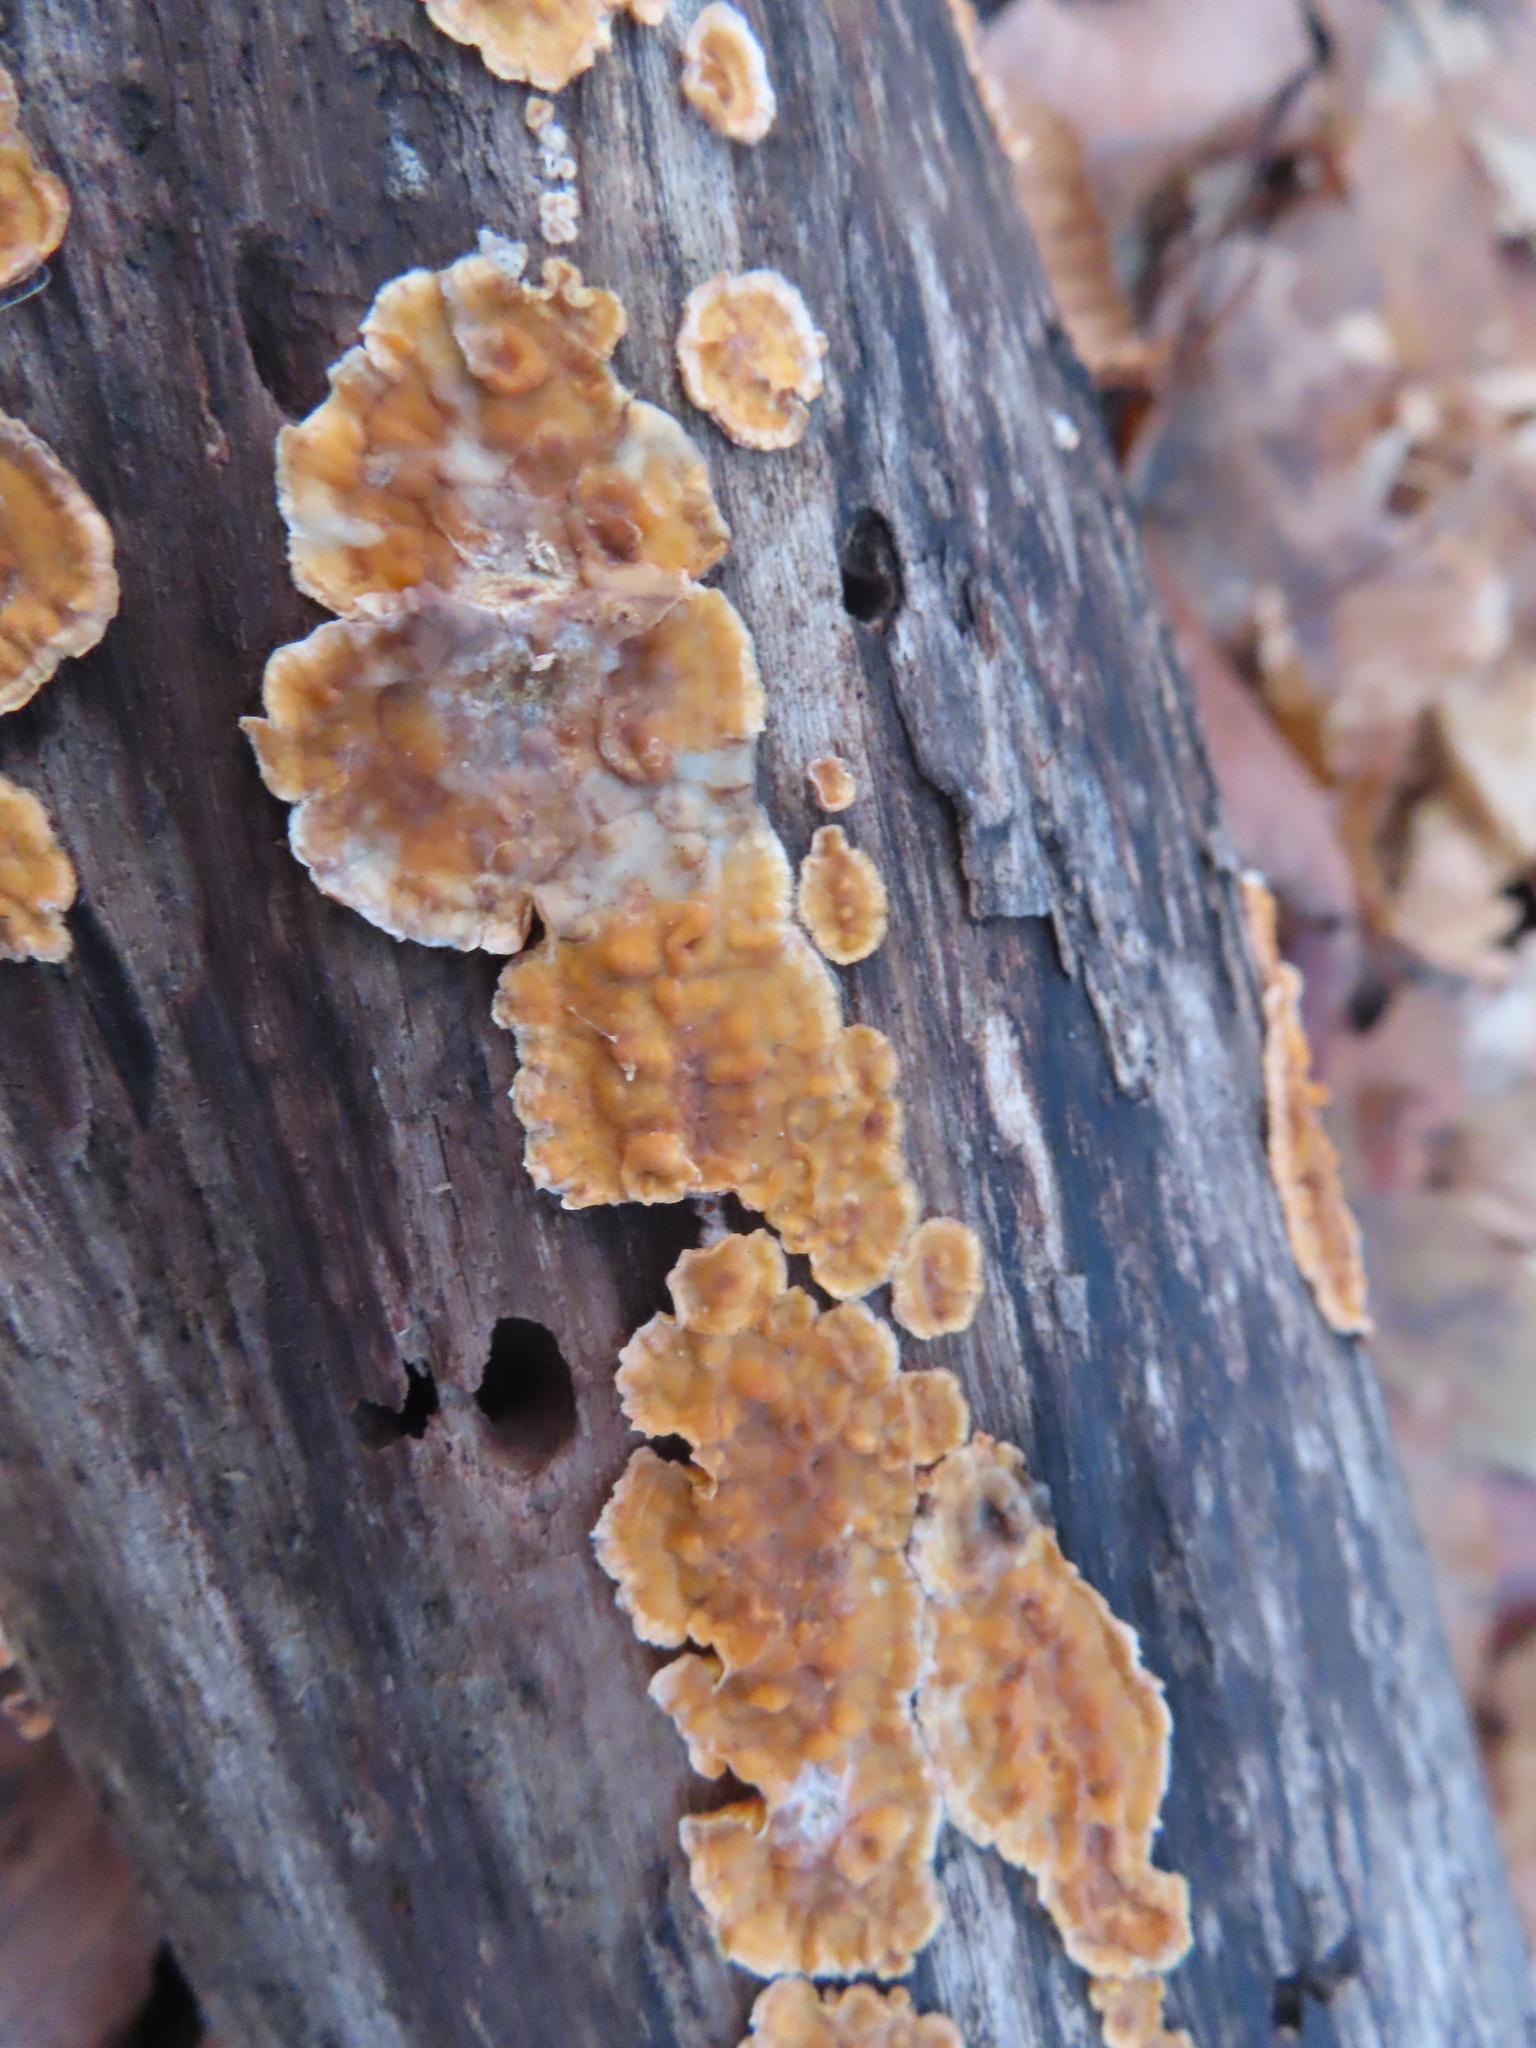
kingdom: Fungi
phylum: Basidiomycota
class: Agaricomycetes
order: Russulales
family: Stereaceae
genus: Stereum
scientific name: Stereum complicatum
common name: Crowded parchment
